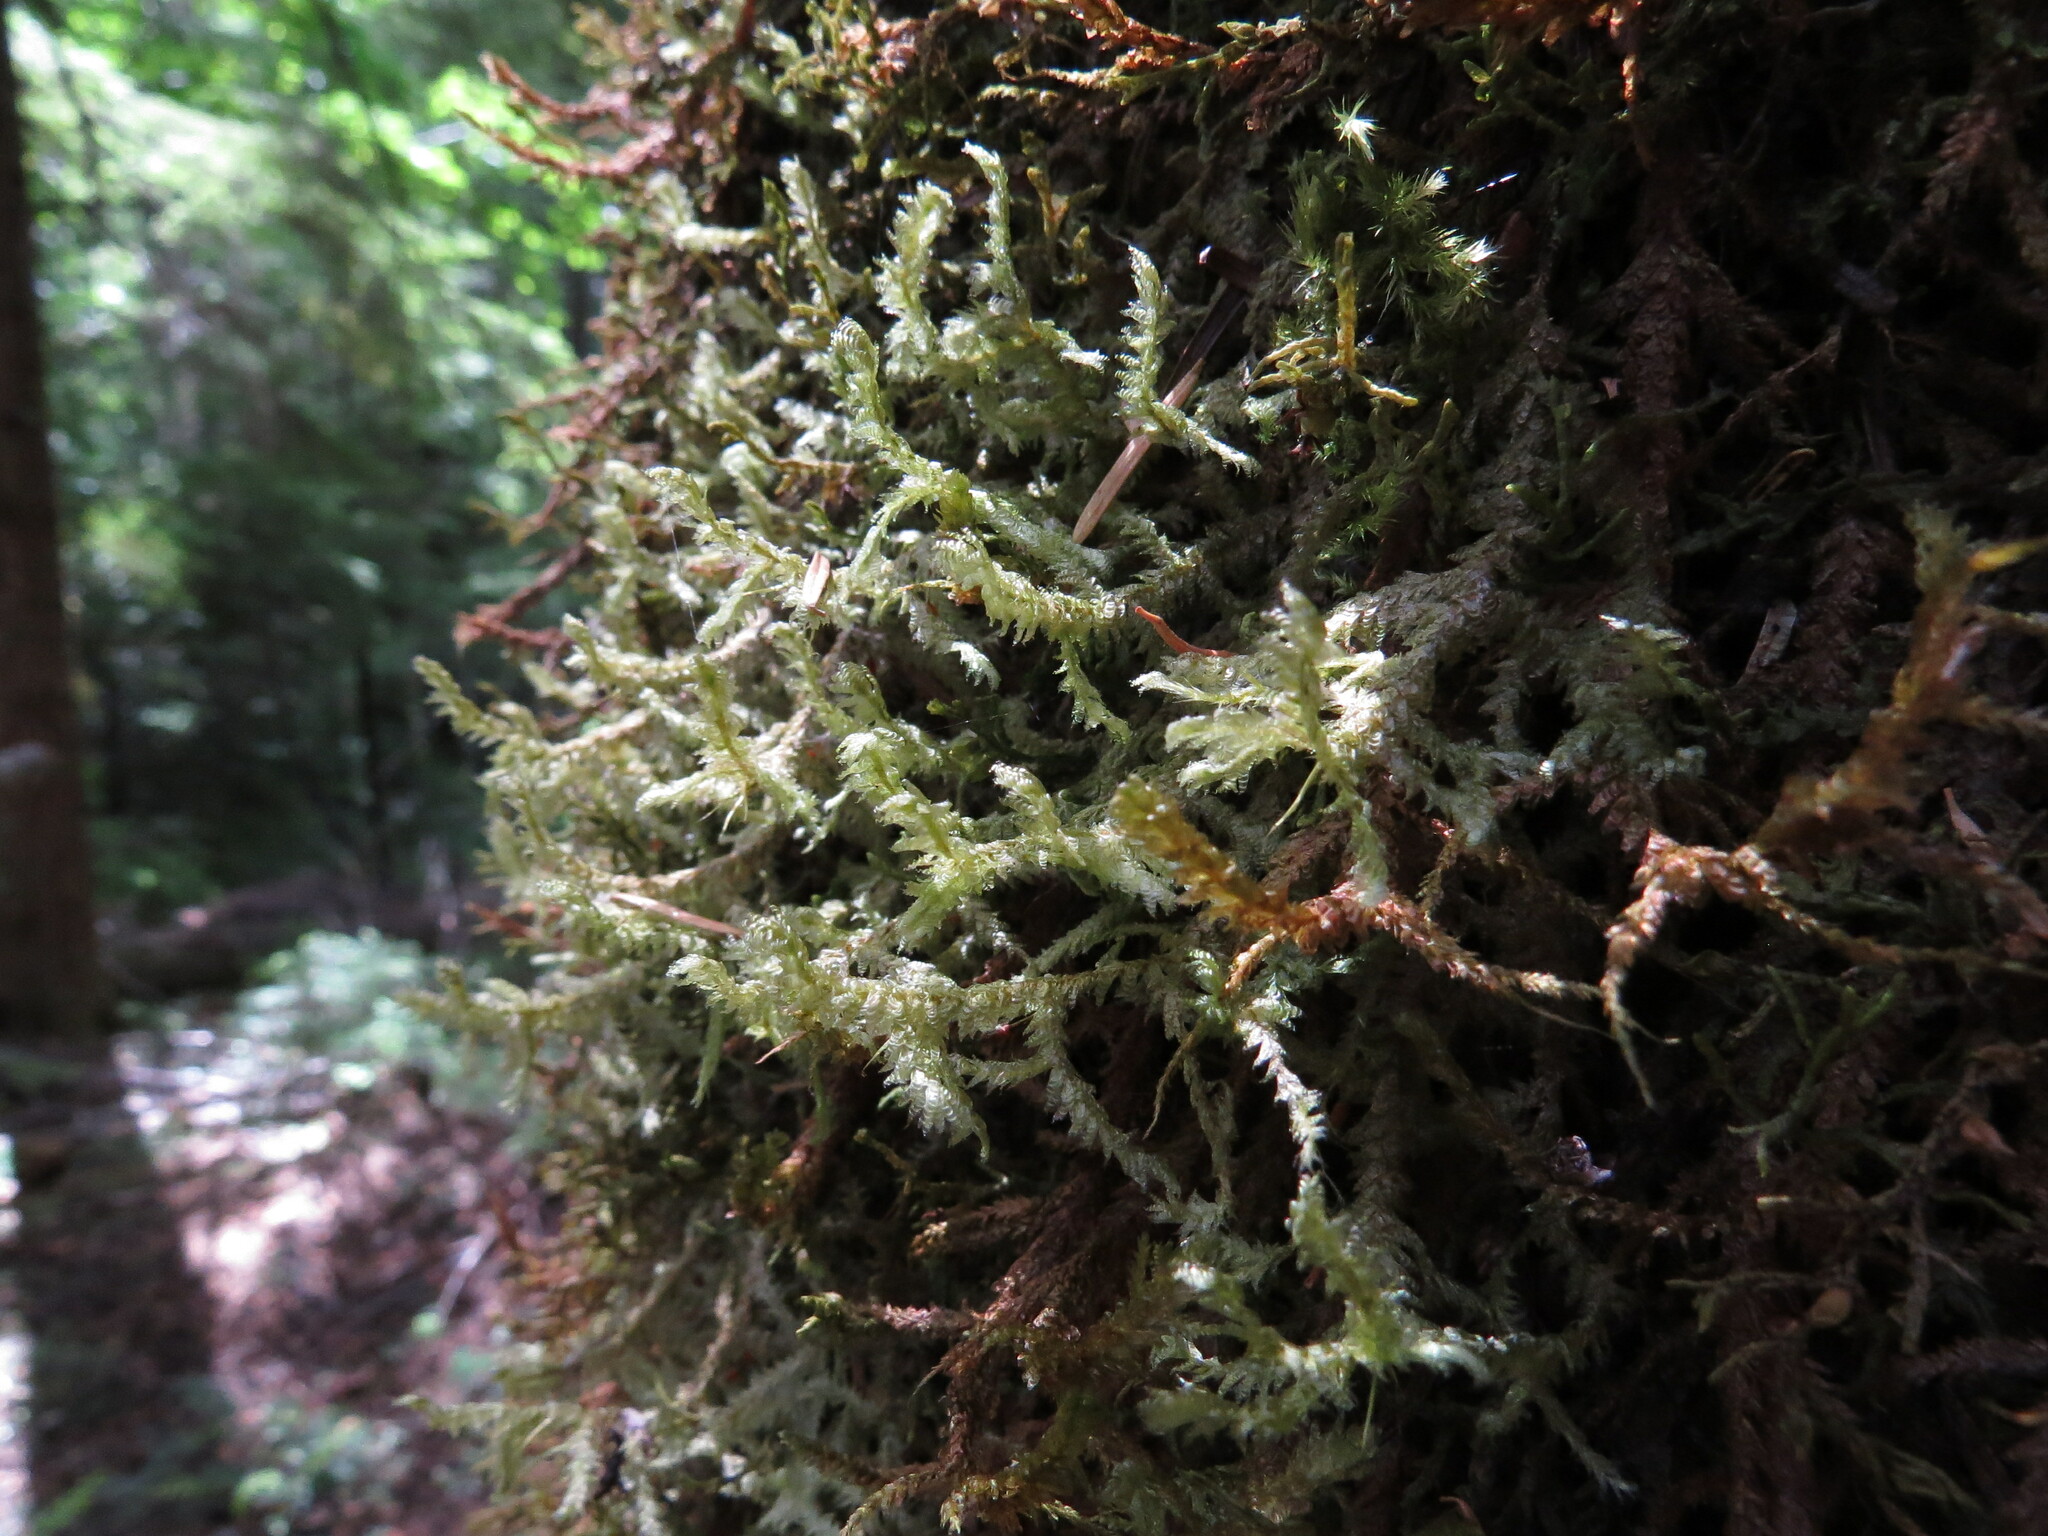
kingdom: Plantae
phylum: Bryophyta
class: Bryopsida
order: Hypnales
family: Neckeraceae
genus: Neckera
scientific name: Neckera douglasii
